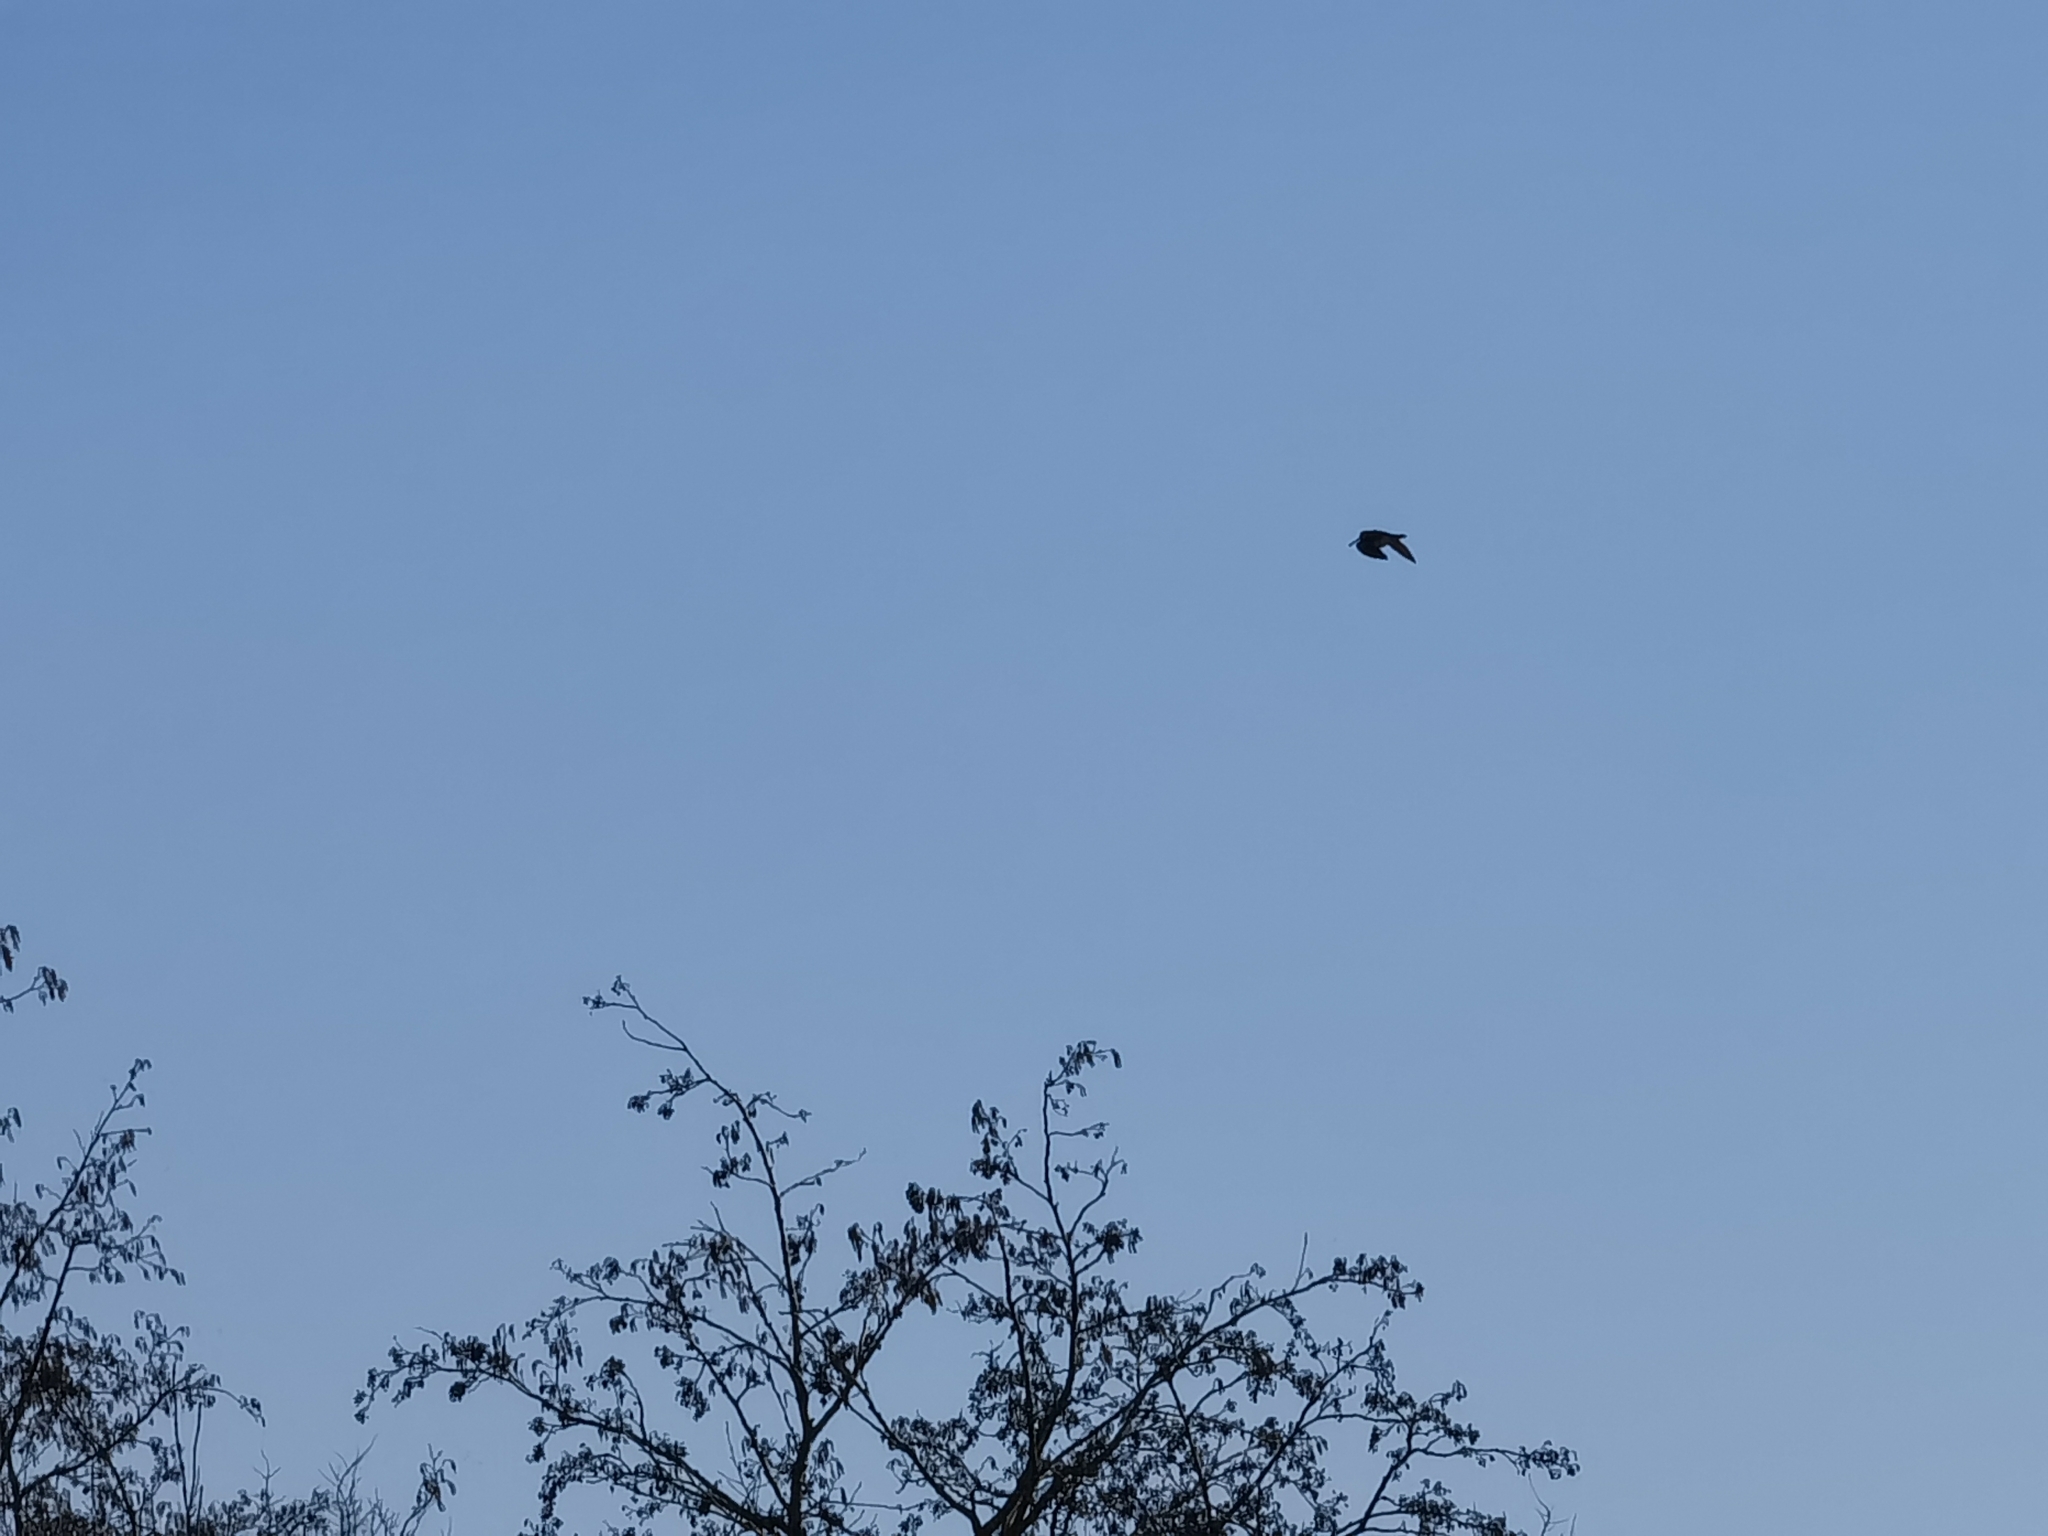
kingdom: Animalia
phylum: Chordata
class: Aves
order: Charadriiformes
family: Scolopacidae
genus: Gallinago
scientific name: Gallinago gallinago
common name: Common snipe
